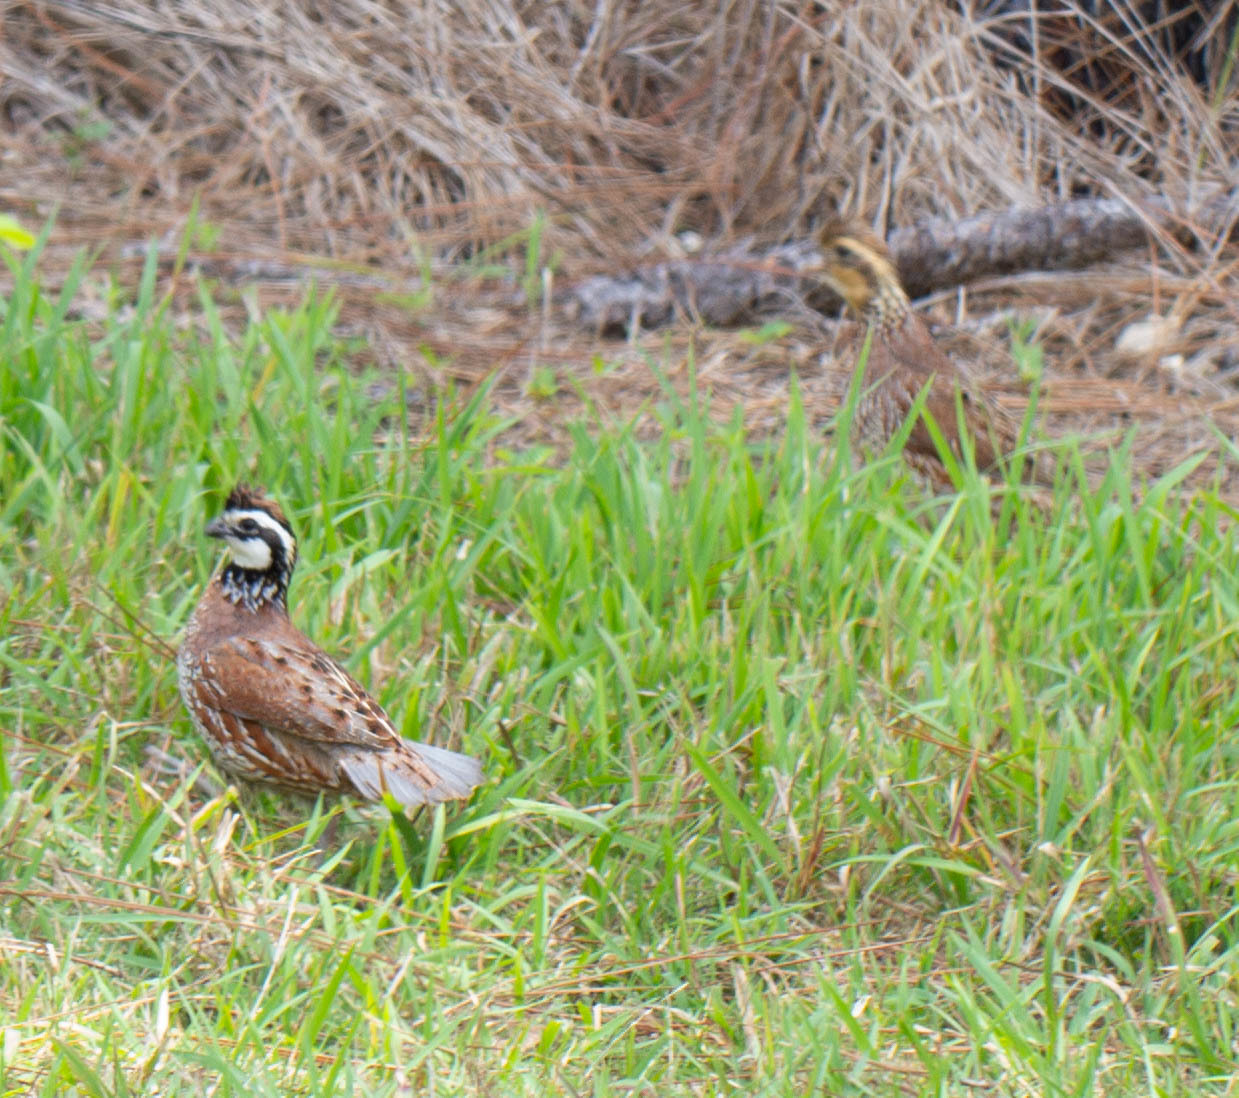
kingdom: Animalia
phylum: Chordata
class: Aves
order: Galliformes
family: Odontophoridae
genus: Colinus
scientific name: Colinus virginianus
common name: Northern bobwhite
